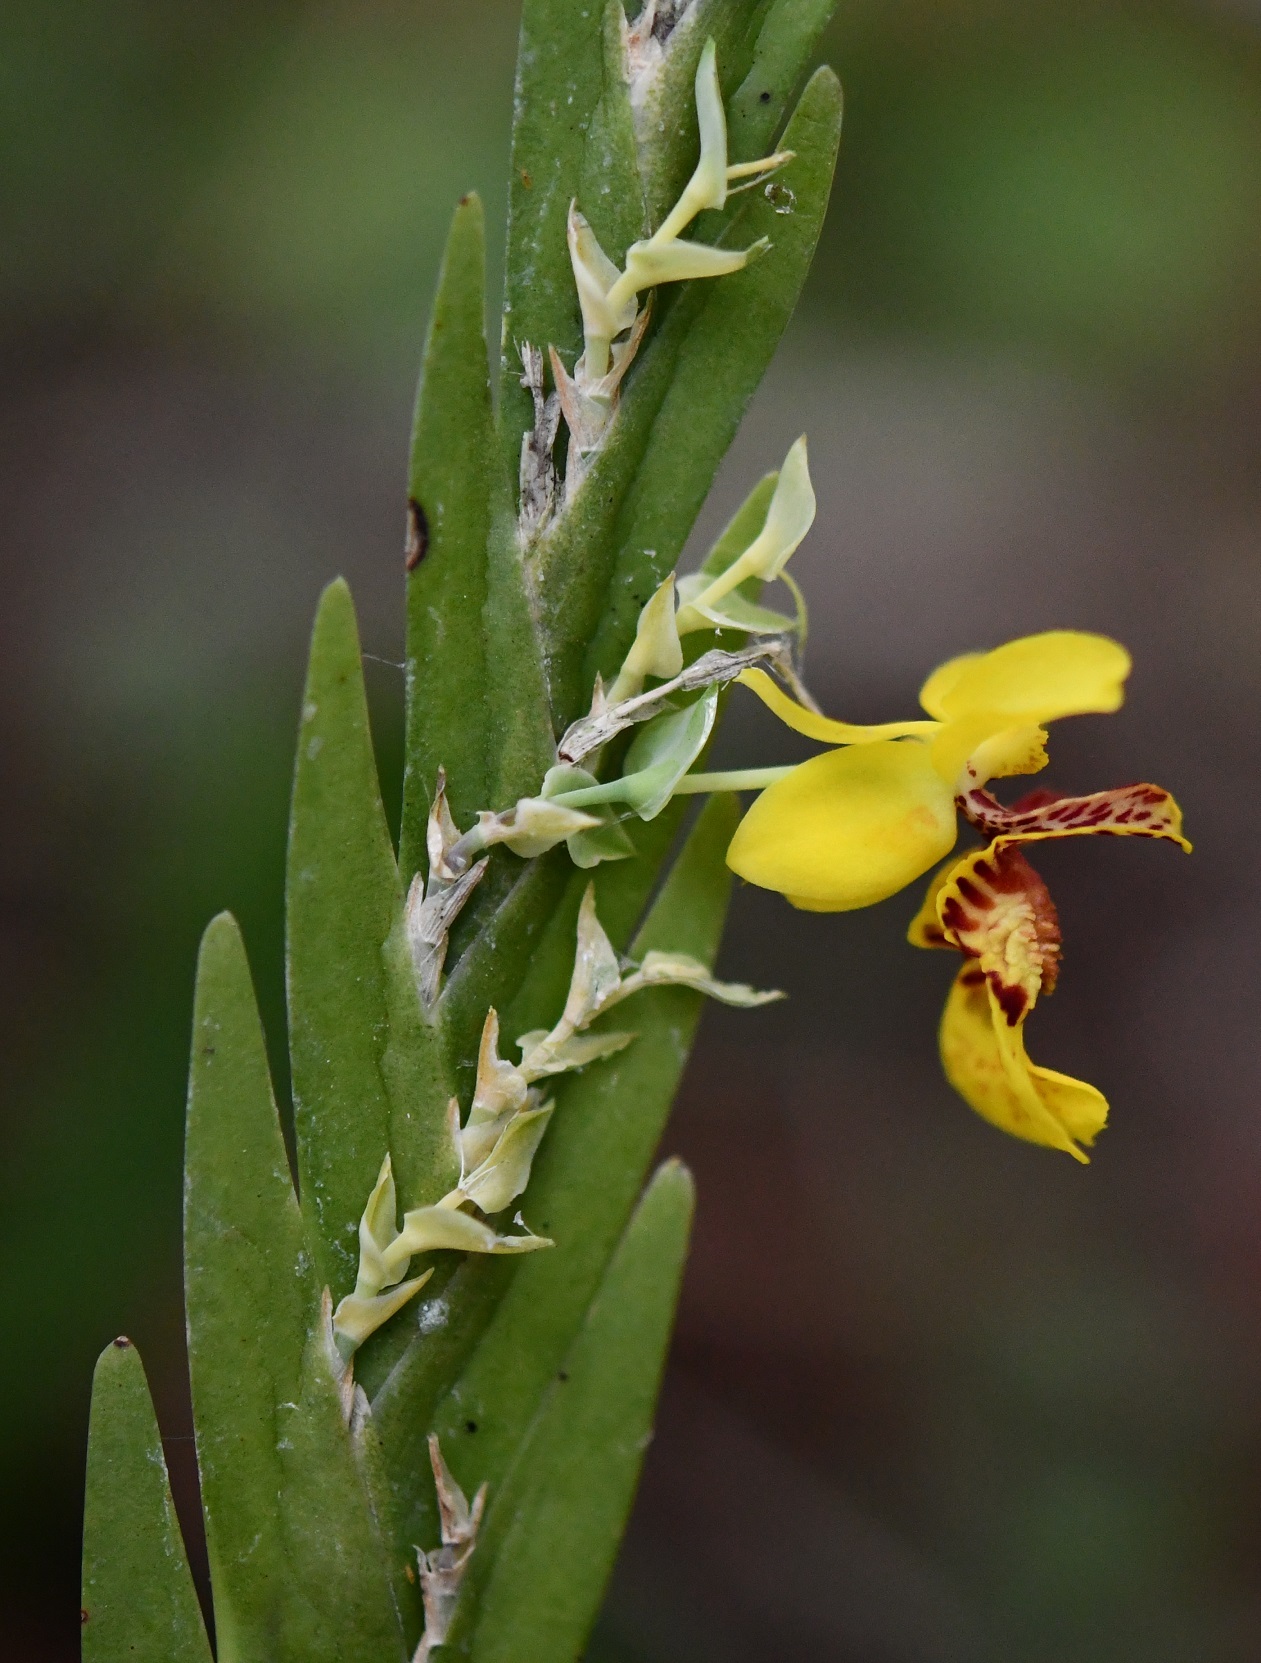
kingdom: Plantae
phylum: Tracheophyta
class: Liliopsida
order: Asparagales
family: Orchidaceae
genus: Lockhartia
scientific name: Lockhartia oerstedii
